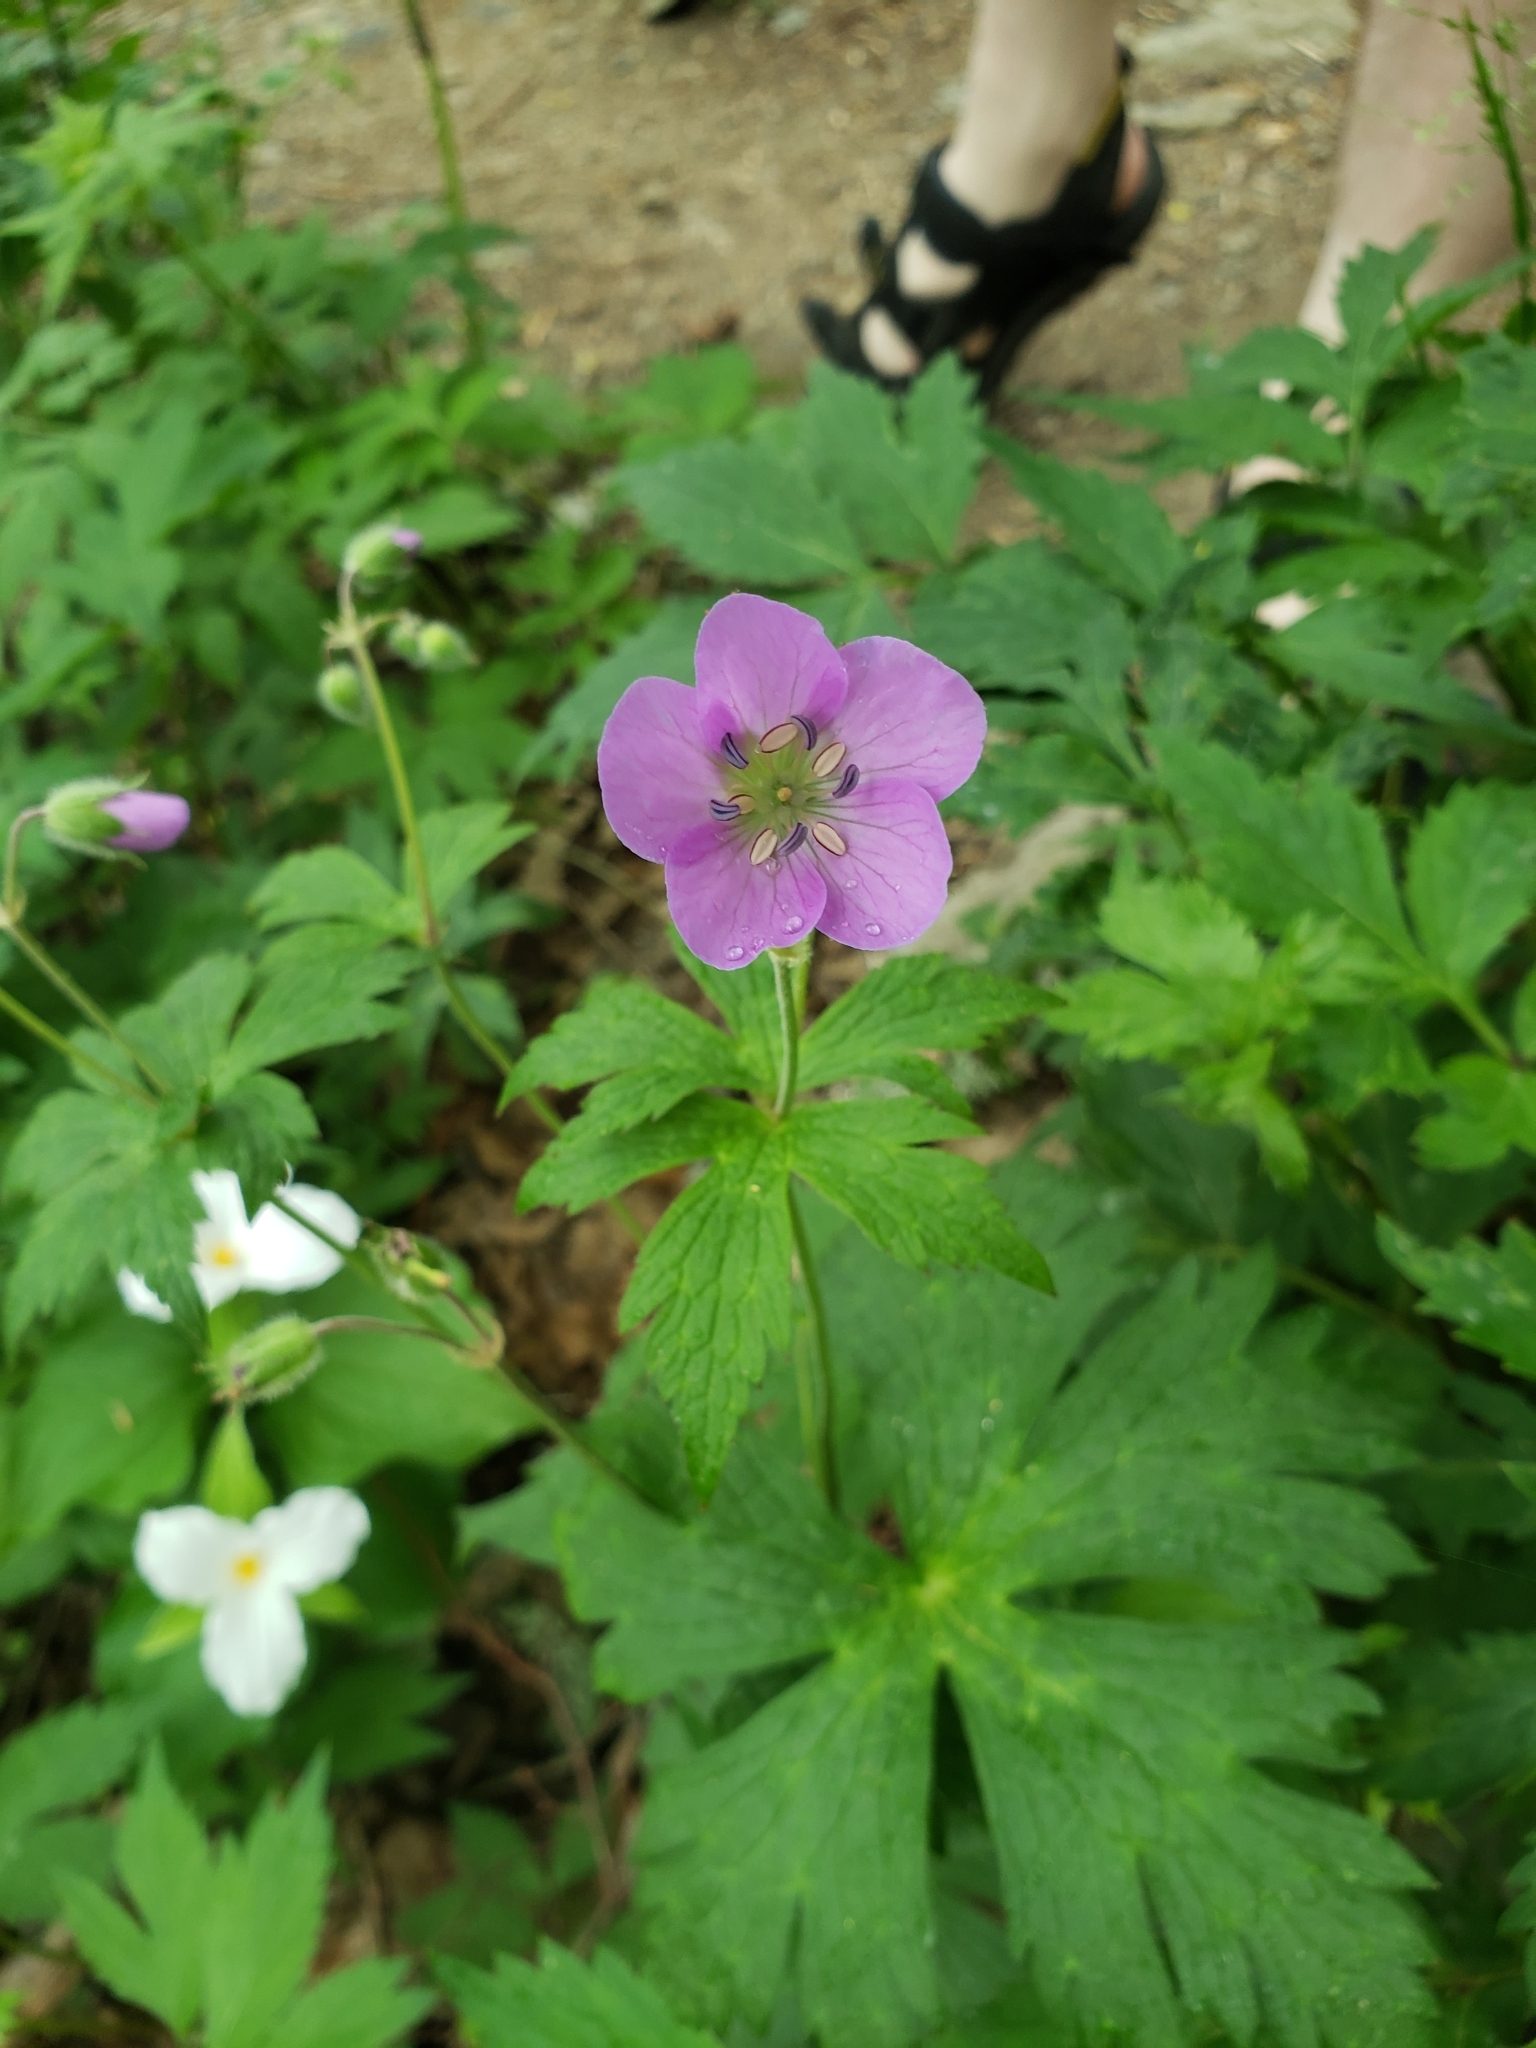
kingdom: Plantae
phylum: Tracheophyta
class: Magnoliopsida
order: Geraniales
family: Geraniaceae
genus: Geranium
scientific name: Geranium maculatum
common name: Spotted geranium
